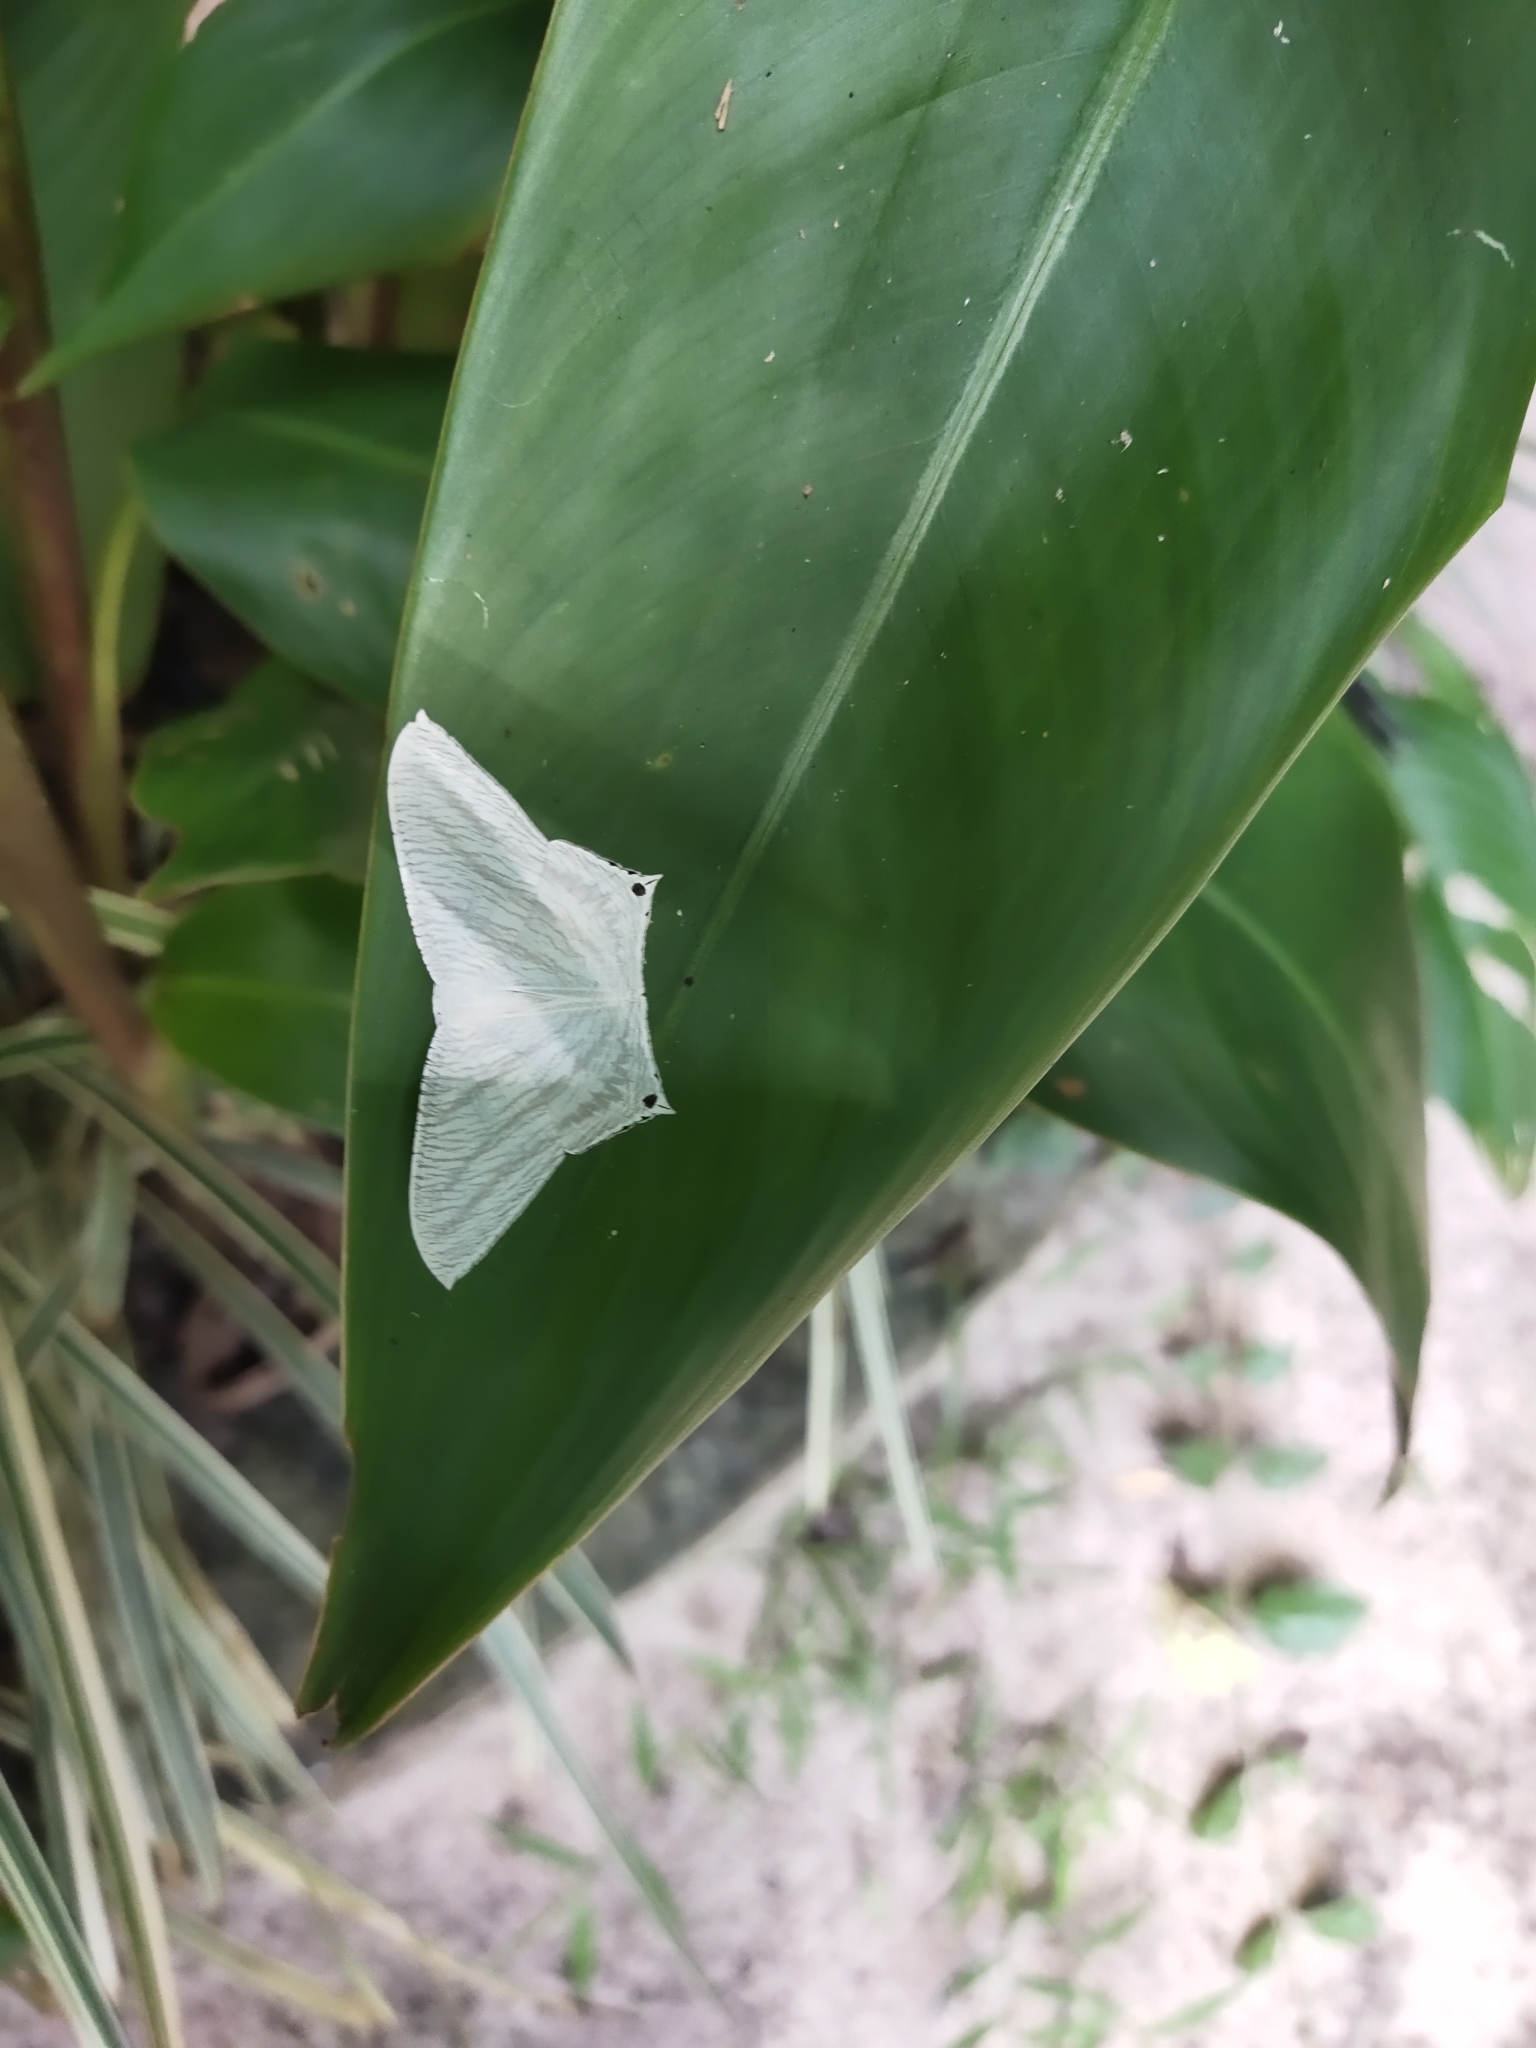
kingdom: Animalia
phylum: Arthropoda
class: Insecta
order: Lepidoptera
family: Uraniidae
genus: Micronia
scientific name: Micronia aculeata
